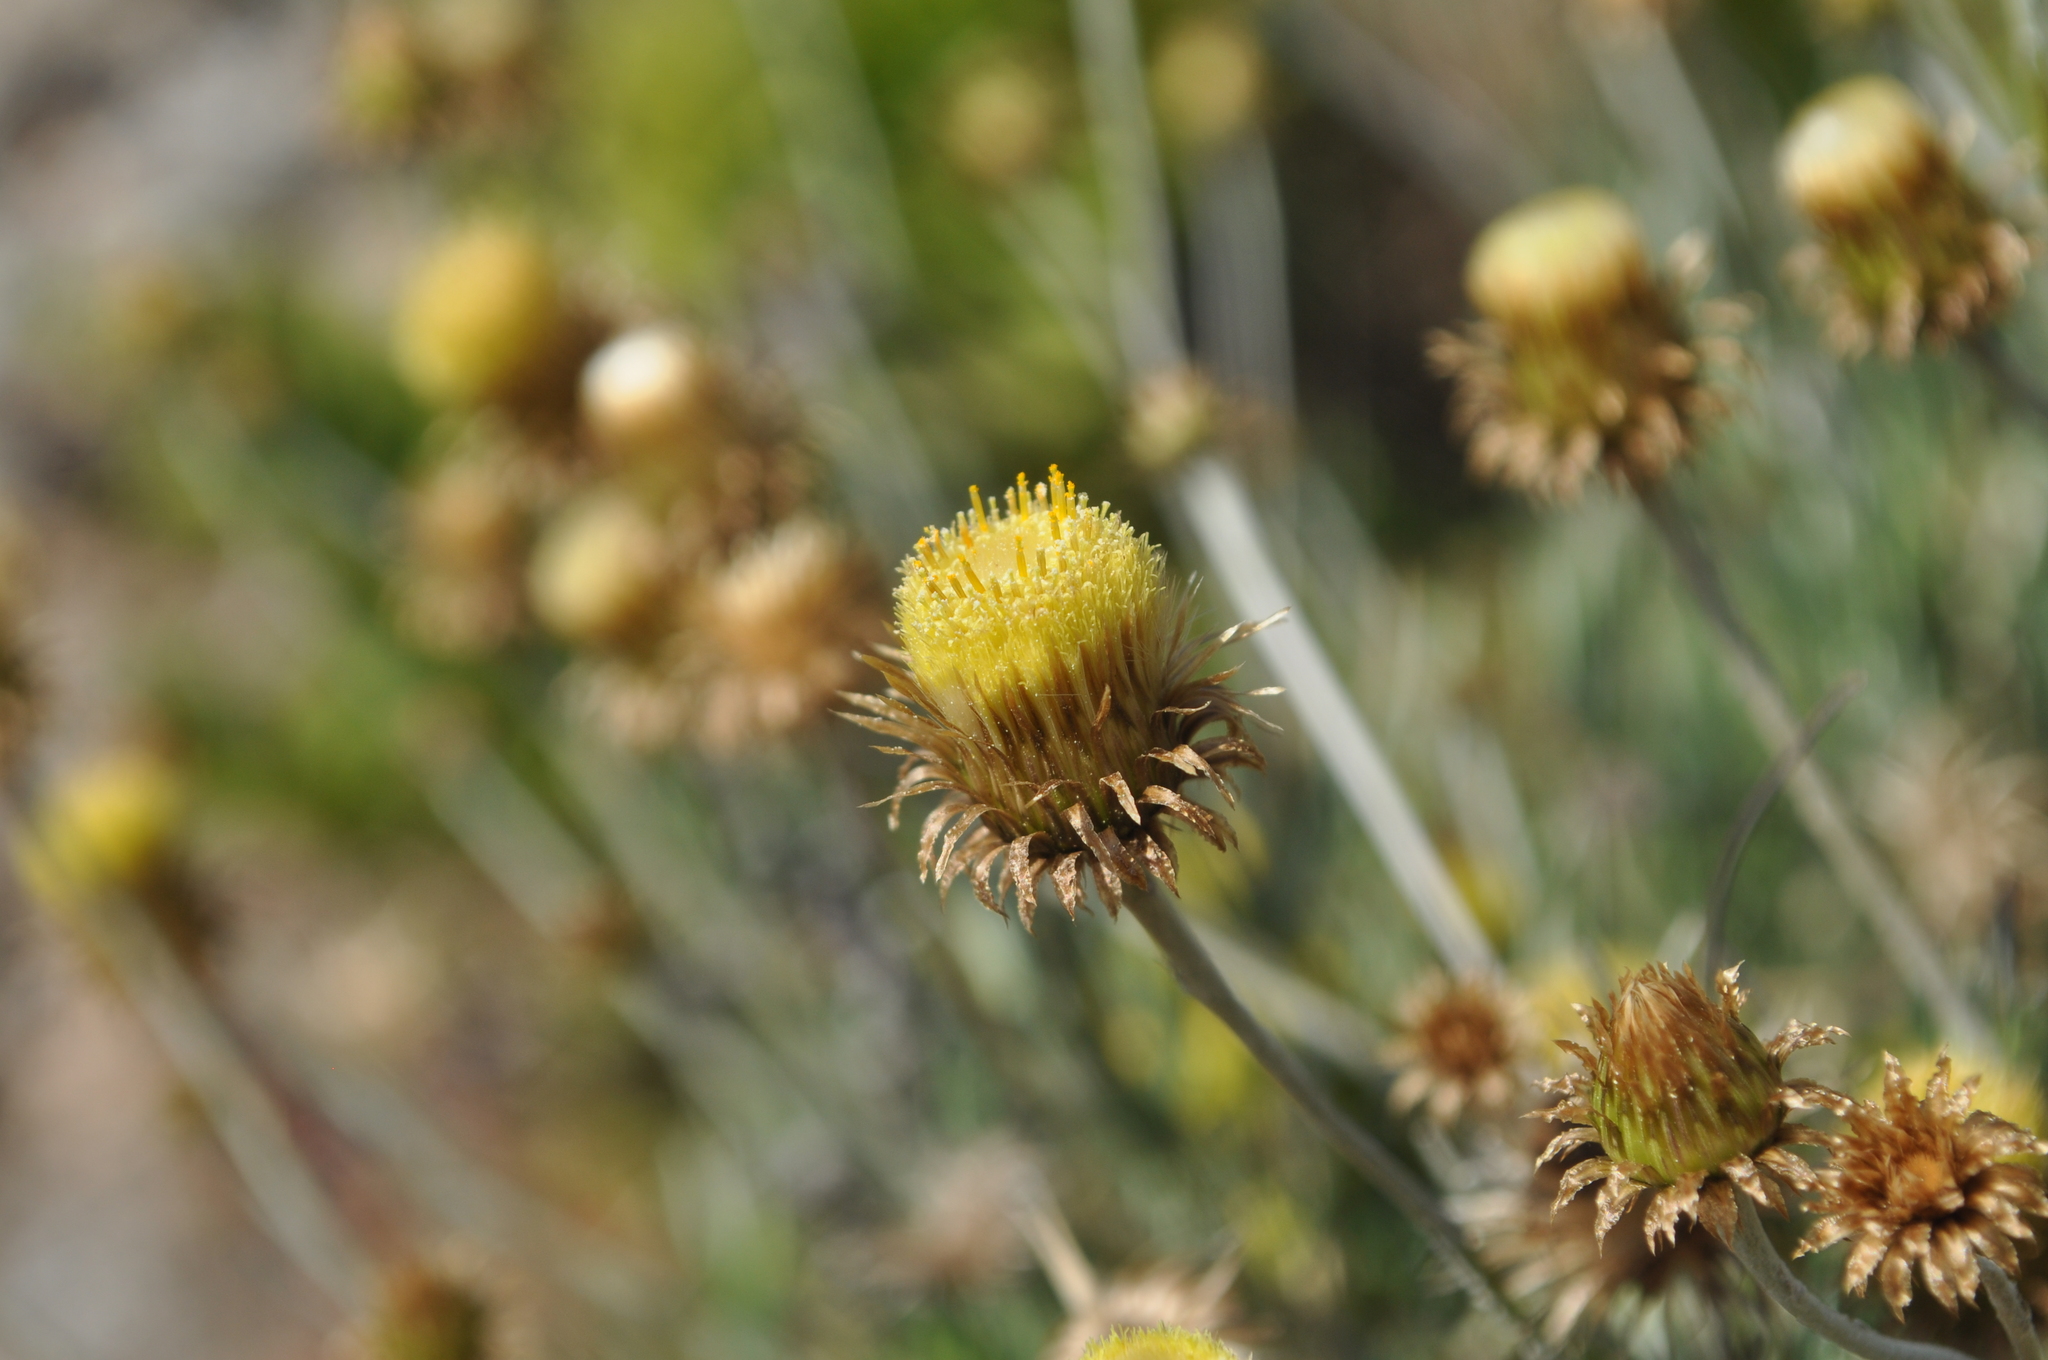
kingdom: Plantae
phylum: Tracheophyta
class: Magnoliopsida
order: Asterales
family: Asteraceae
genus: Phagnalon
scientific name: Phagnalon saxatile
